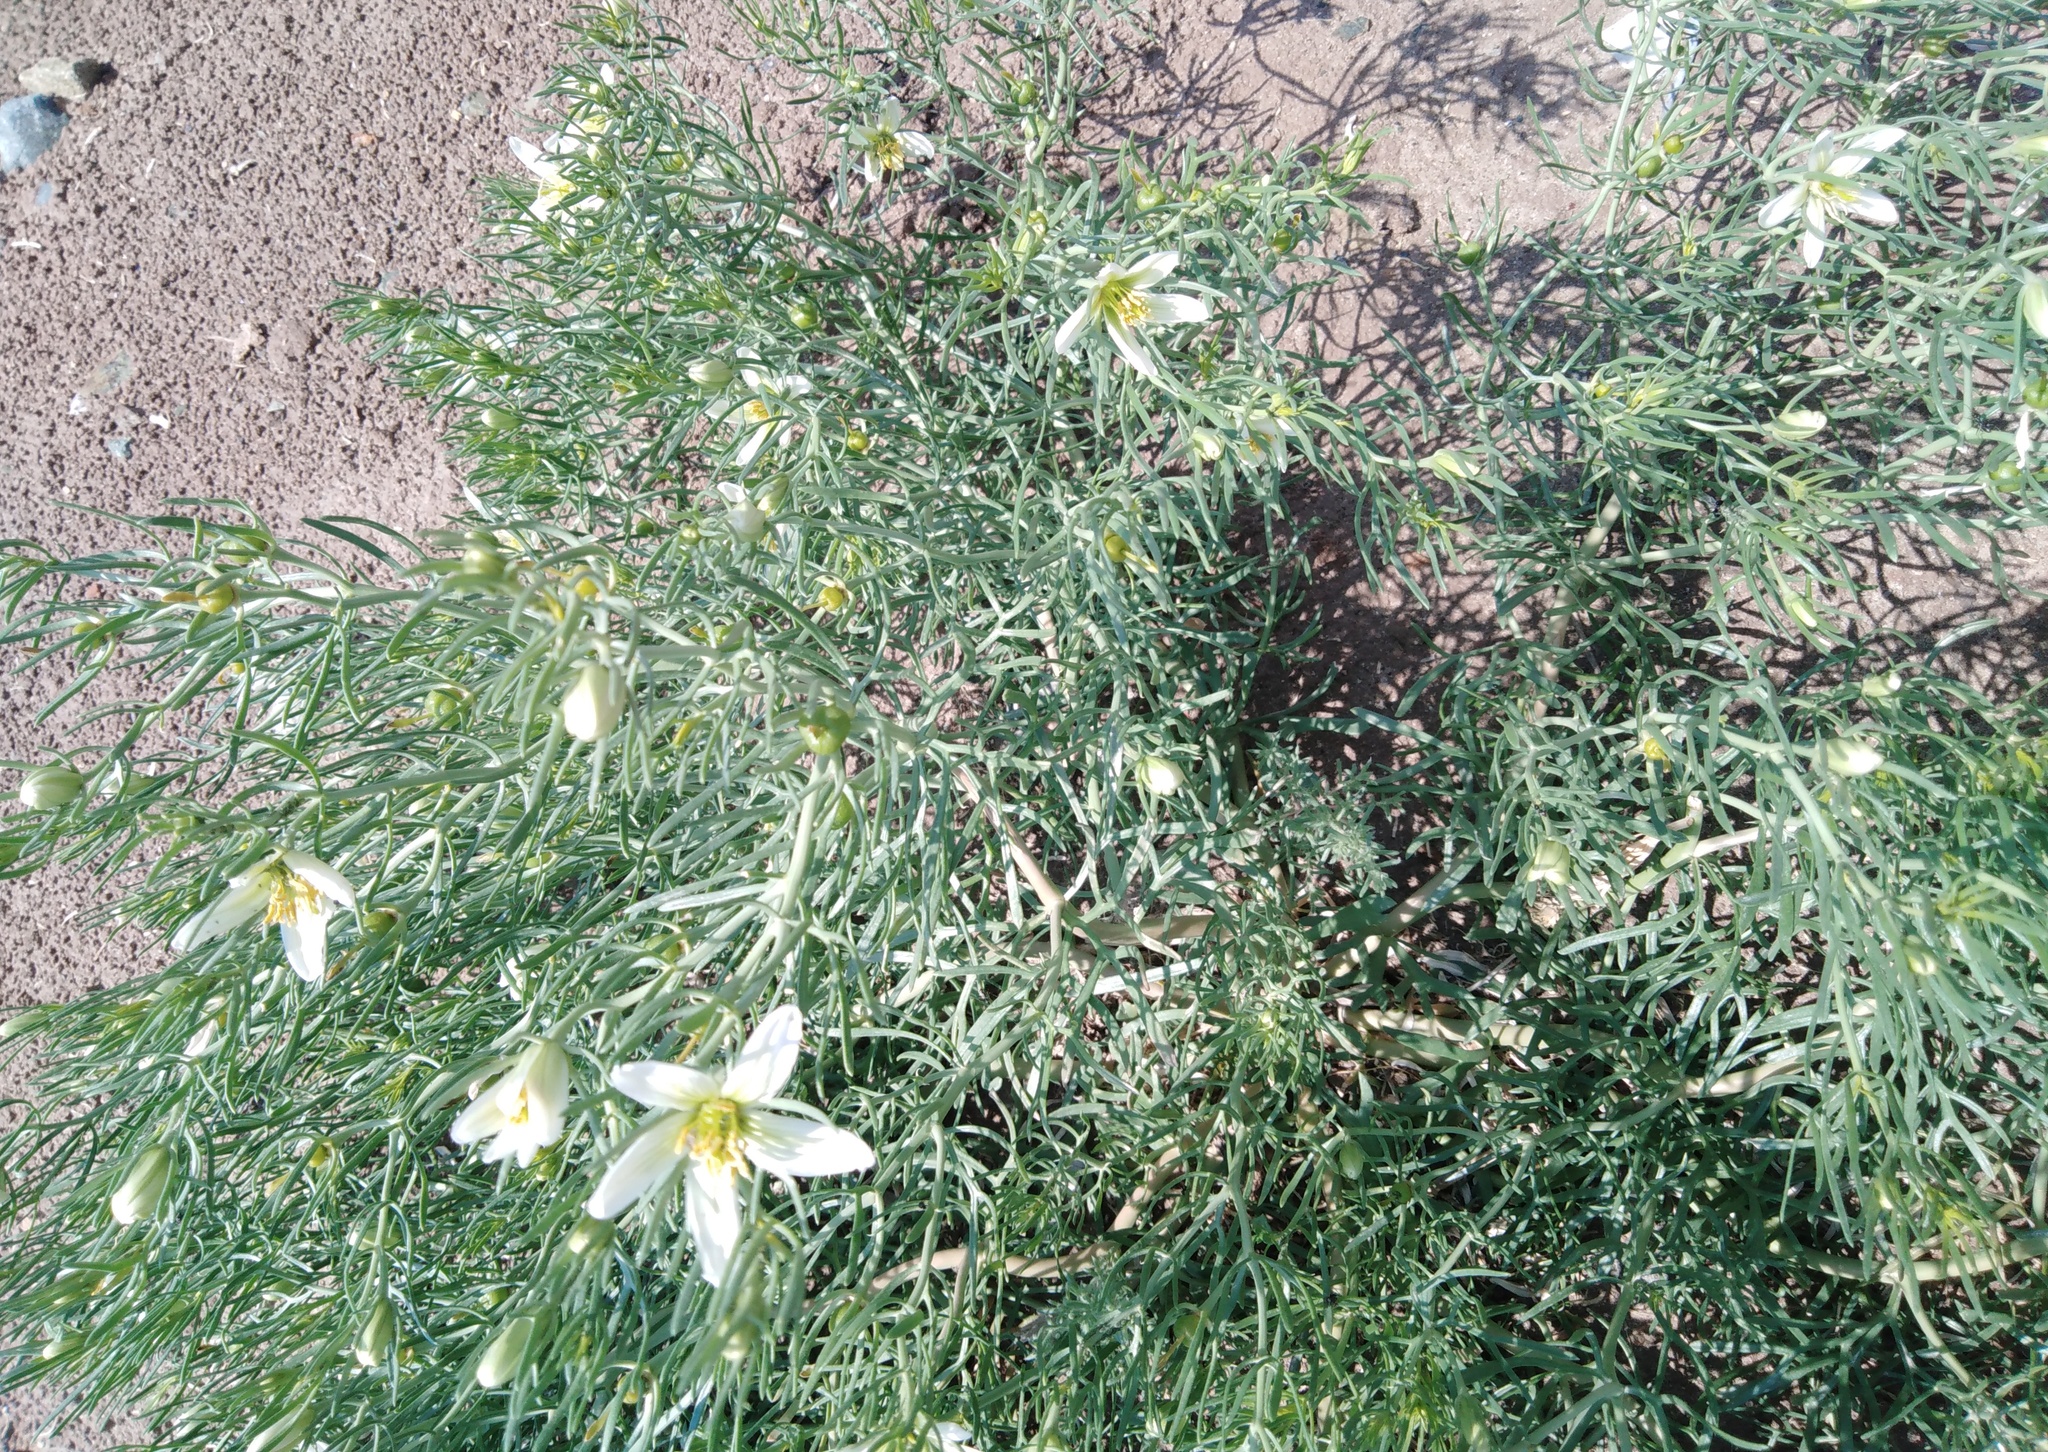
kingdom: Plantae
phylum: Tracheophyta
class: Magnoliopsida
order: Sapindales
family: Tetradiclidaceae
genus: Peganum
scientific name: Peganum harmala
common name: Harmal peganum
